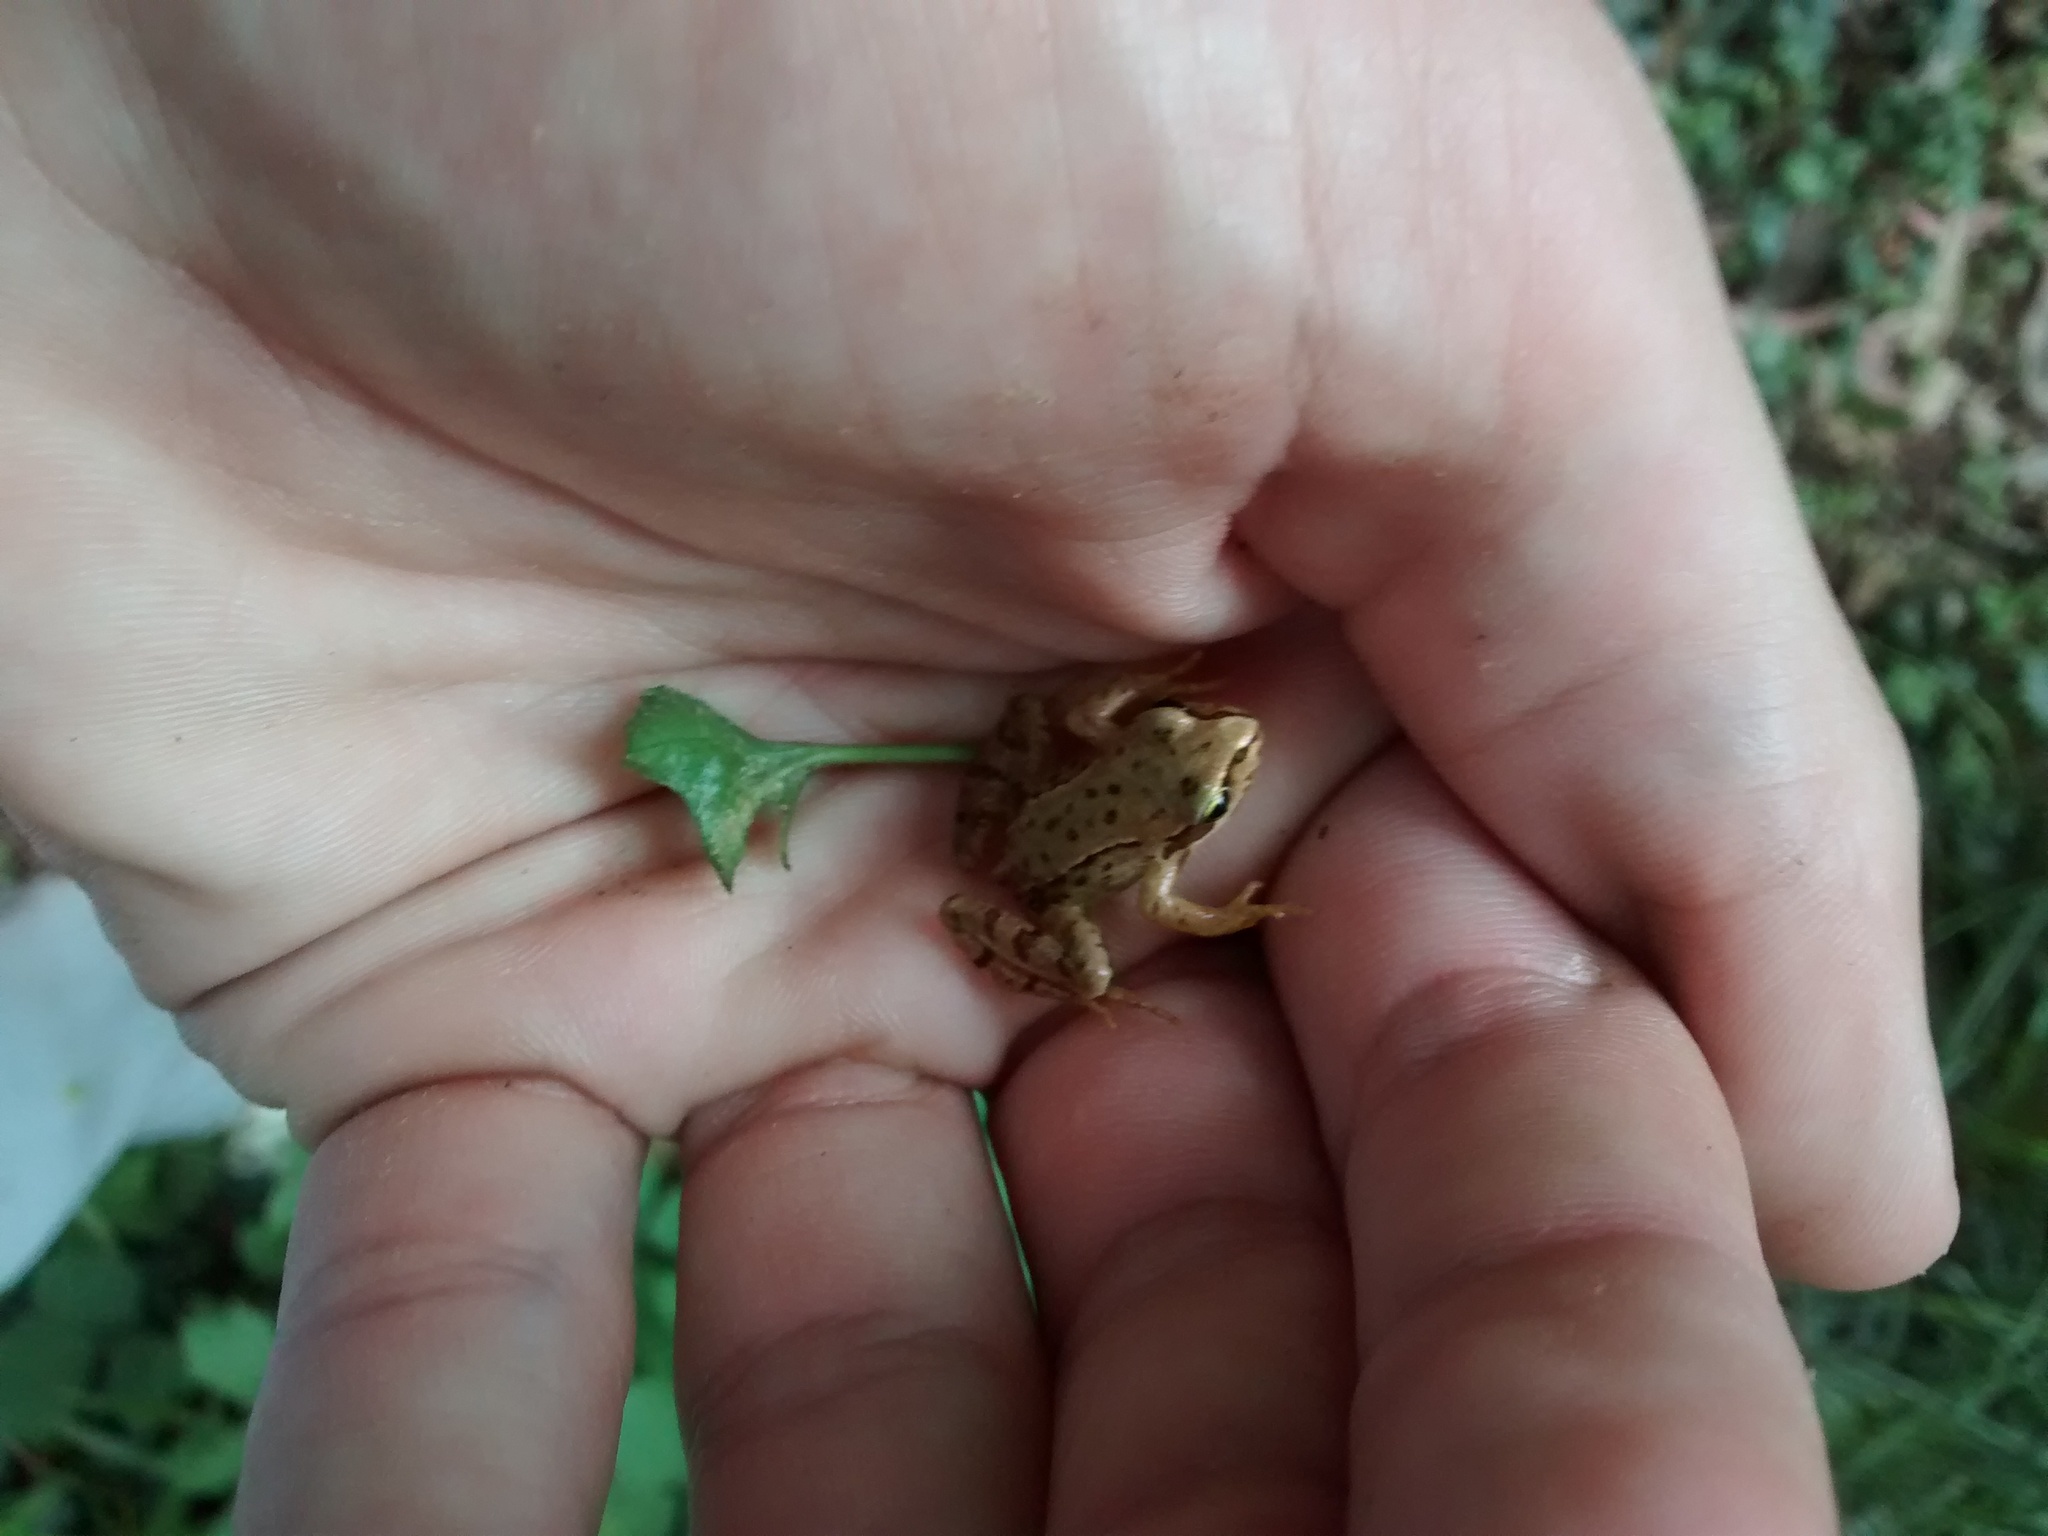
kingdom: Animalia
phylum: Chordata
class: Amphibia
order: Anura
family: Ranidae
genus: Rana
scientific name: Rana temporaria
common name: Common frog
